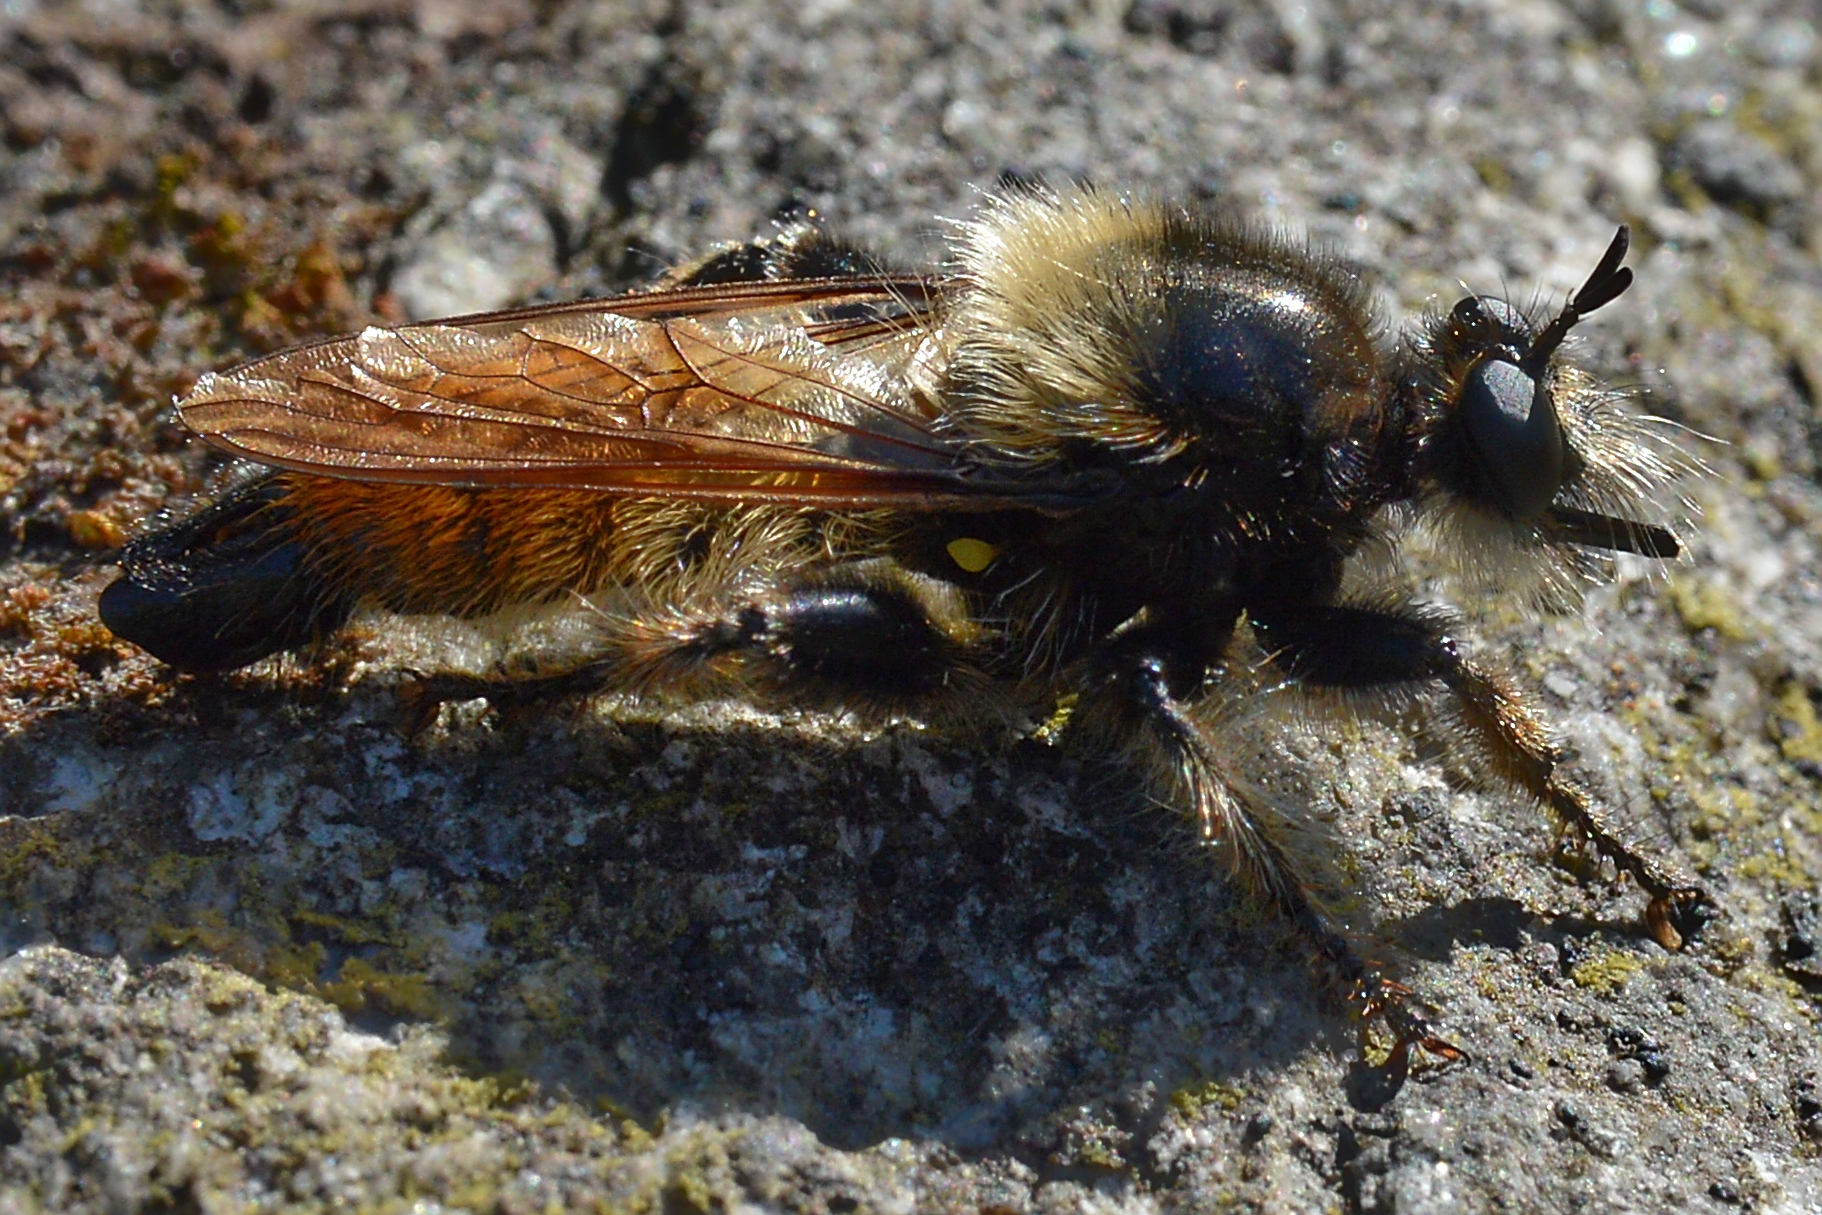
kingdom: Animalia
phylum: Arthropoda
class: Insecta
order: Diptera
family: Asilidae
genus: Laphria
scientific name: Laphria flava
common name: Bumblebee robberfly
